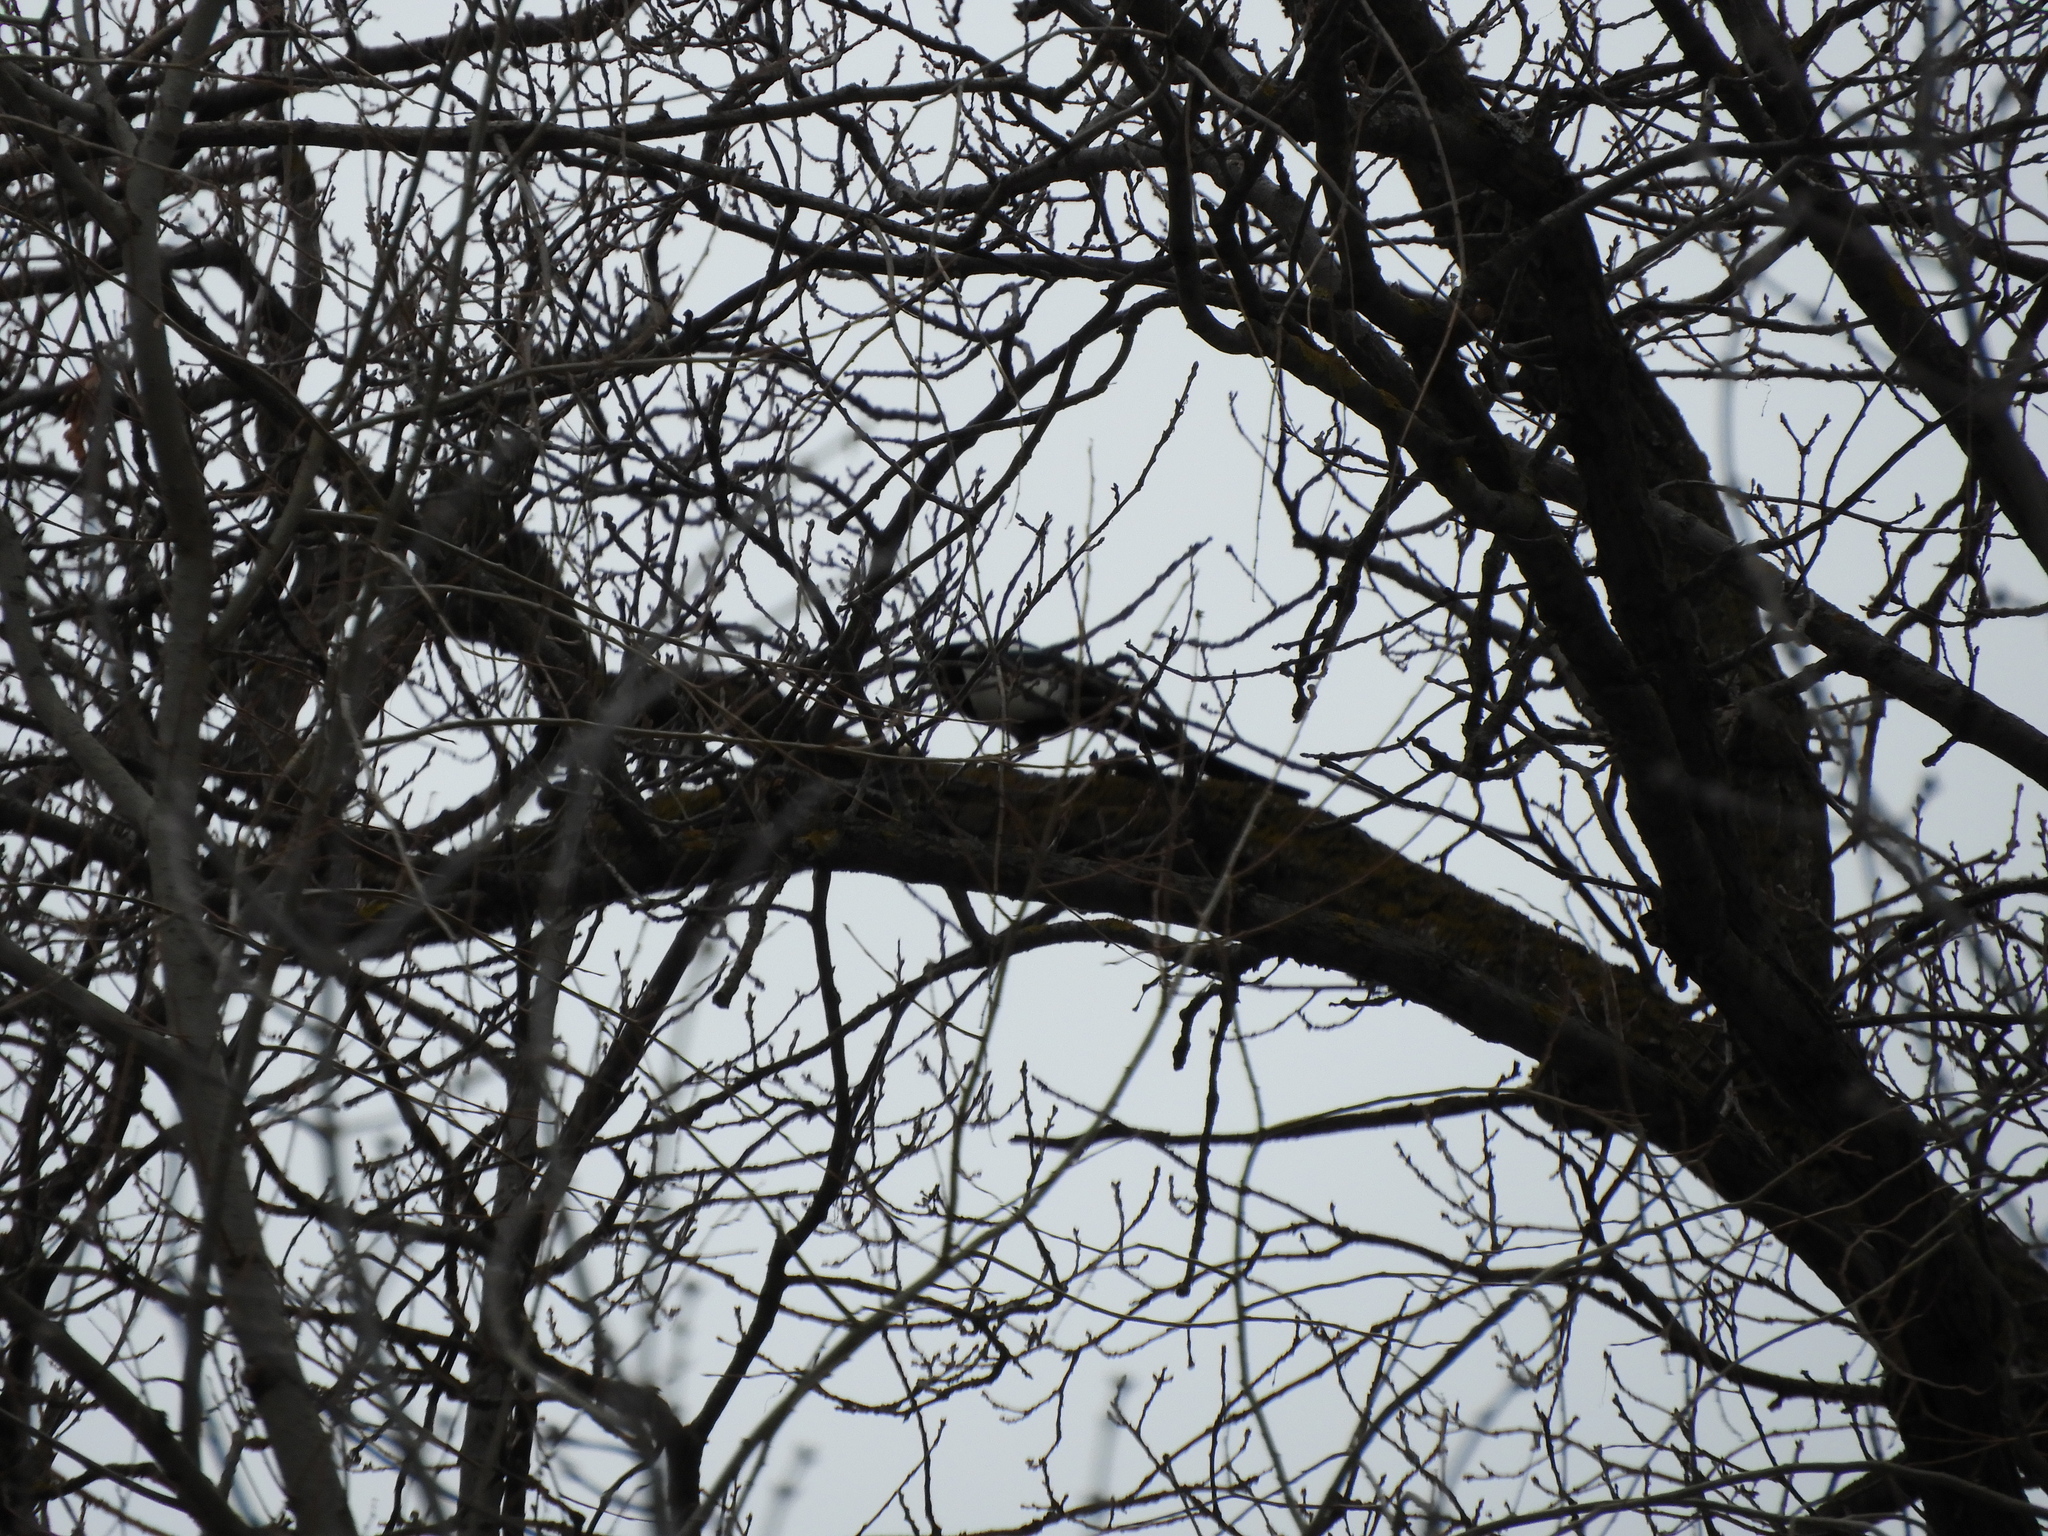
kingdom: Animalia
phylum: Chordata
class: Aves
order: Passeriformes
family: Corvidae
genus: Pica
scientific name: Pica pica
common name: Eurasian magpie
